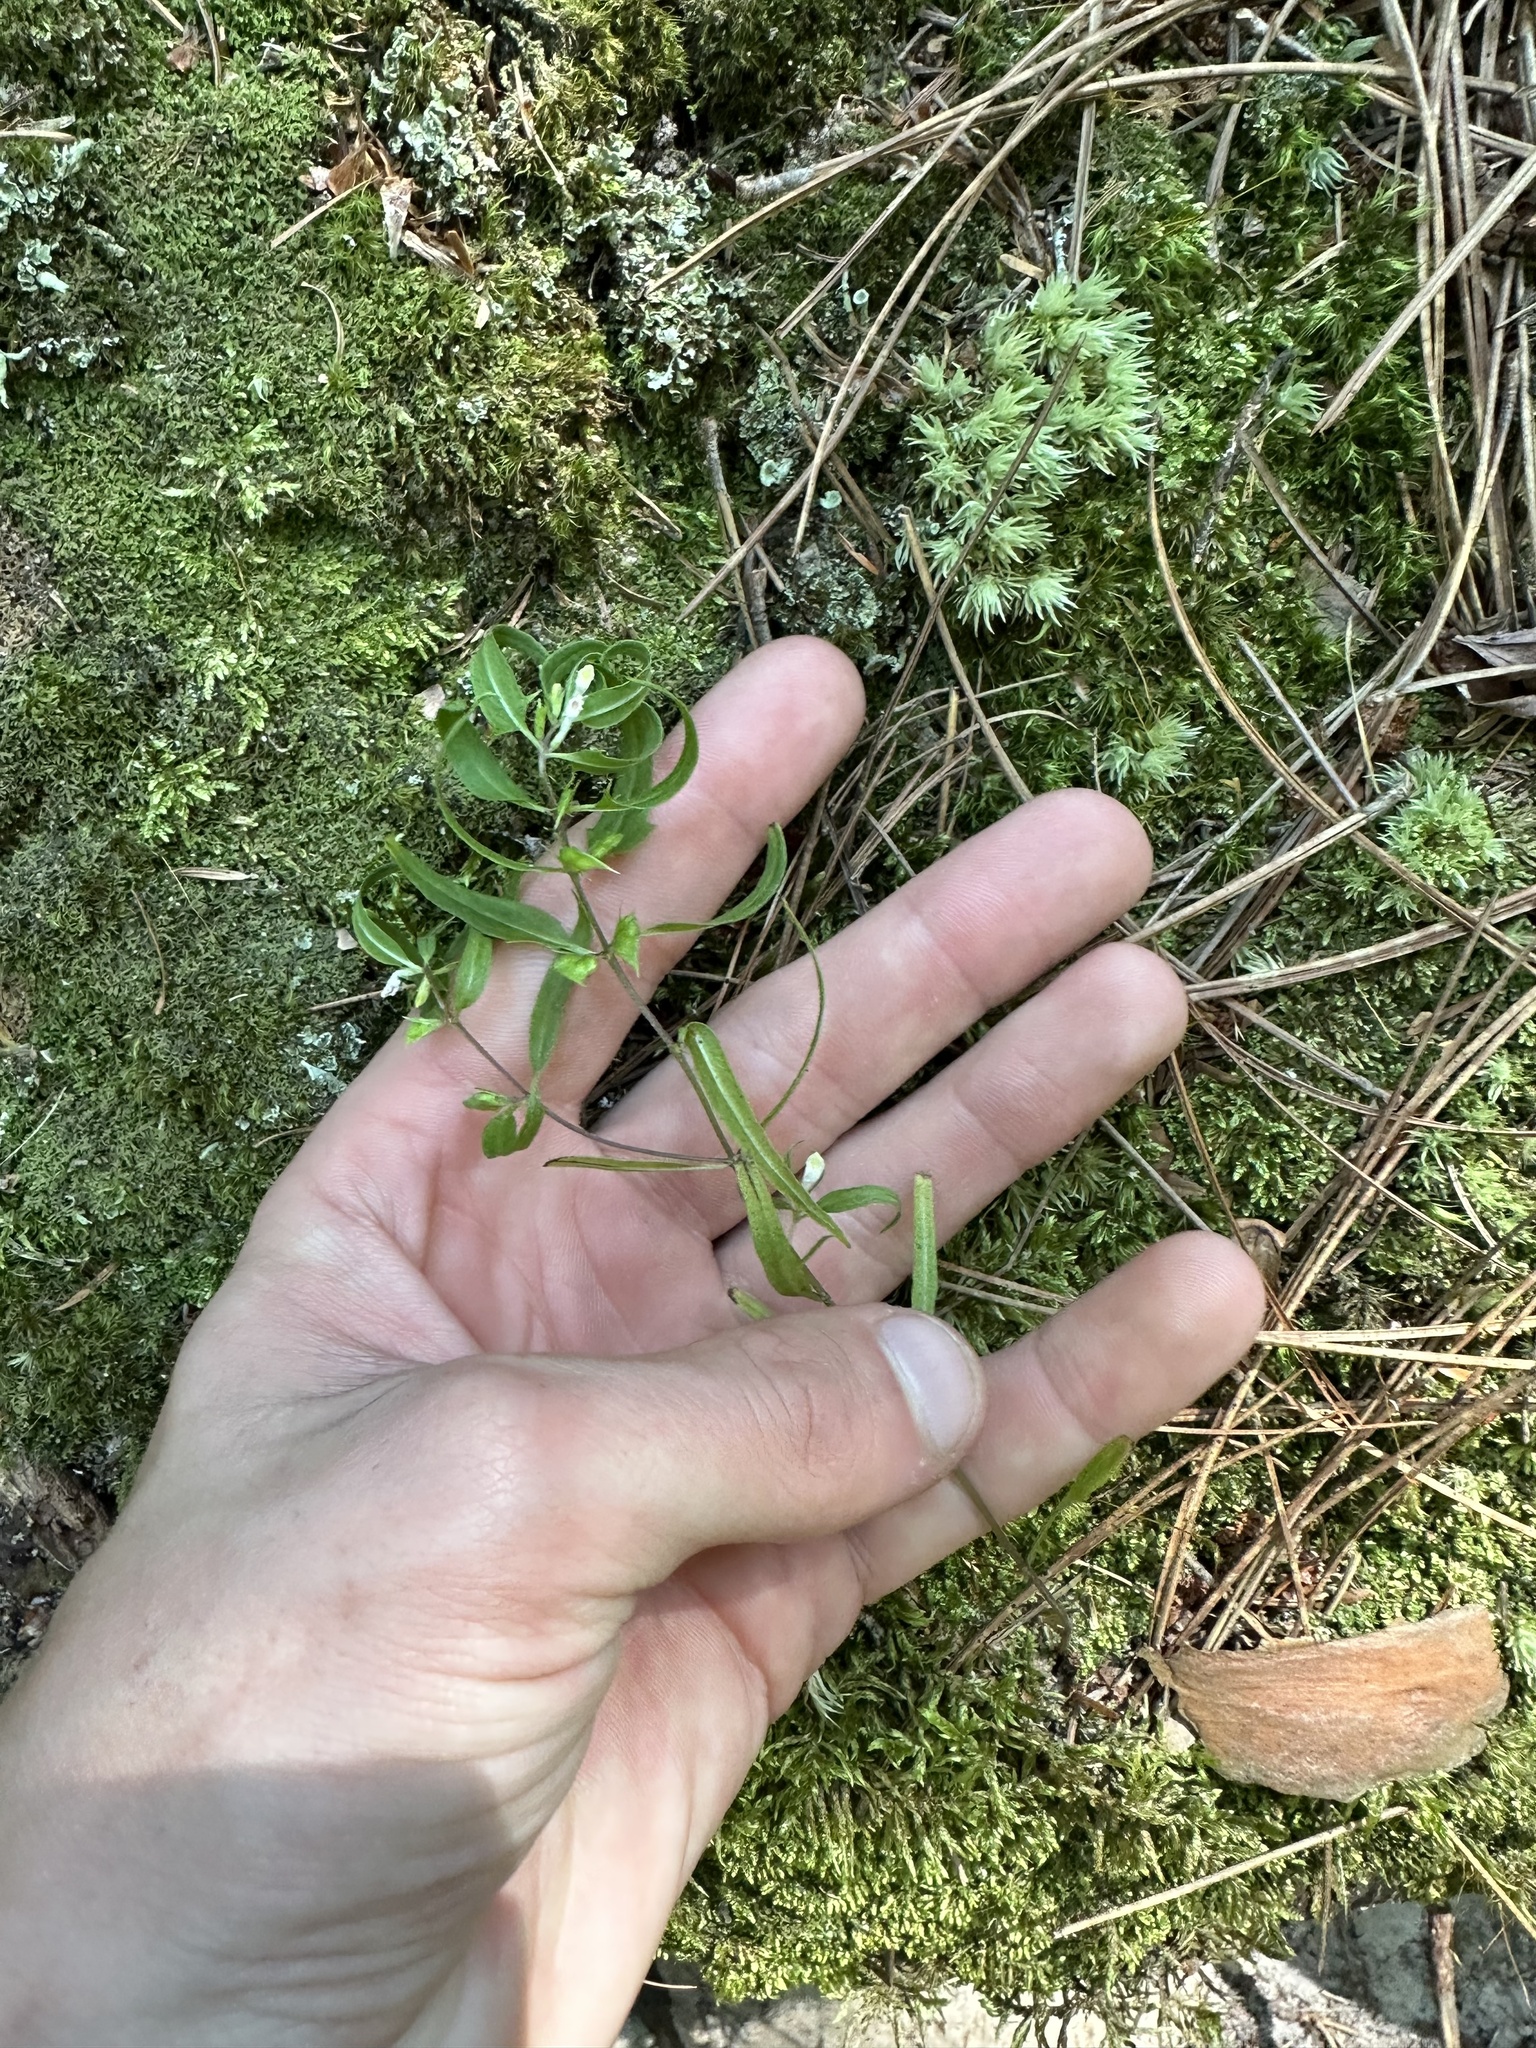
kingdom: Plantae
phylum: Tracheophyta
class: Magnoliopsida
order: Lamiales
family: Orobanchaceae
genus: Melampyrum
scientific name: Melampyrum lineare
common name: American cow-wheat
